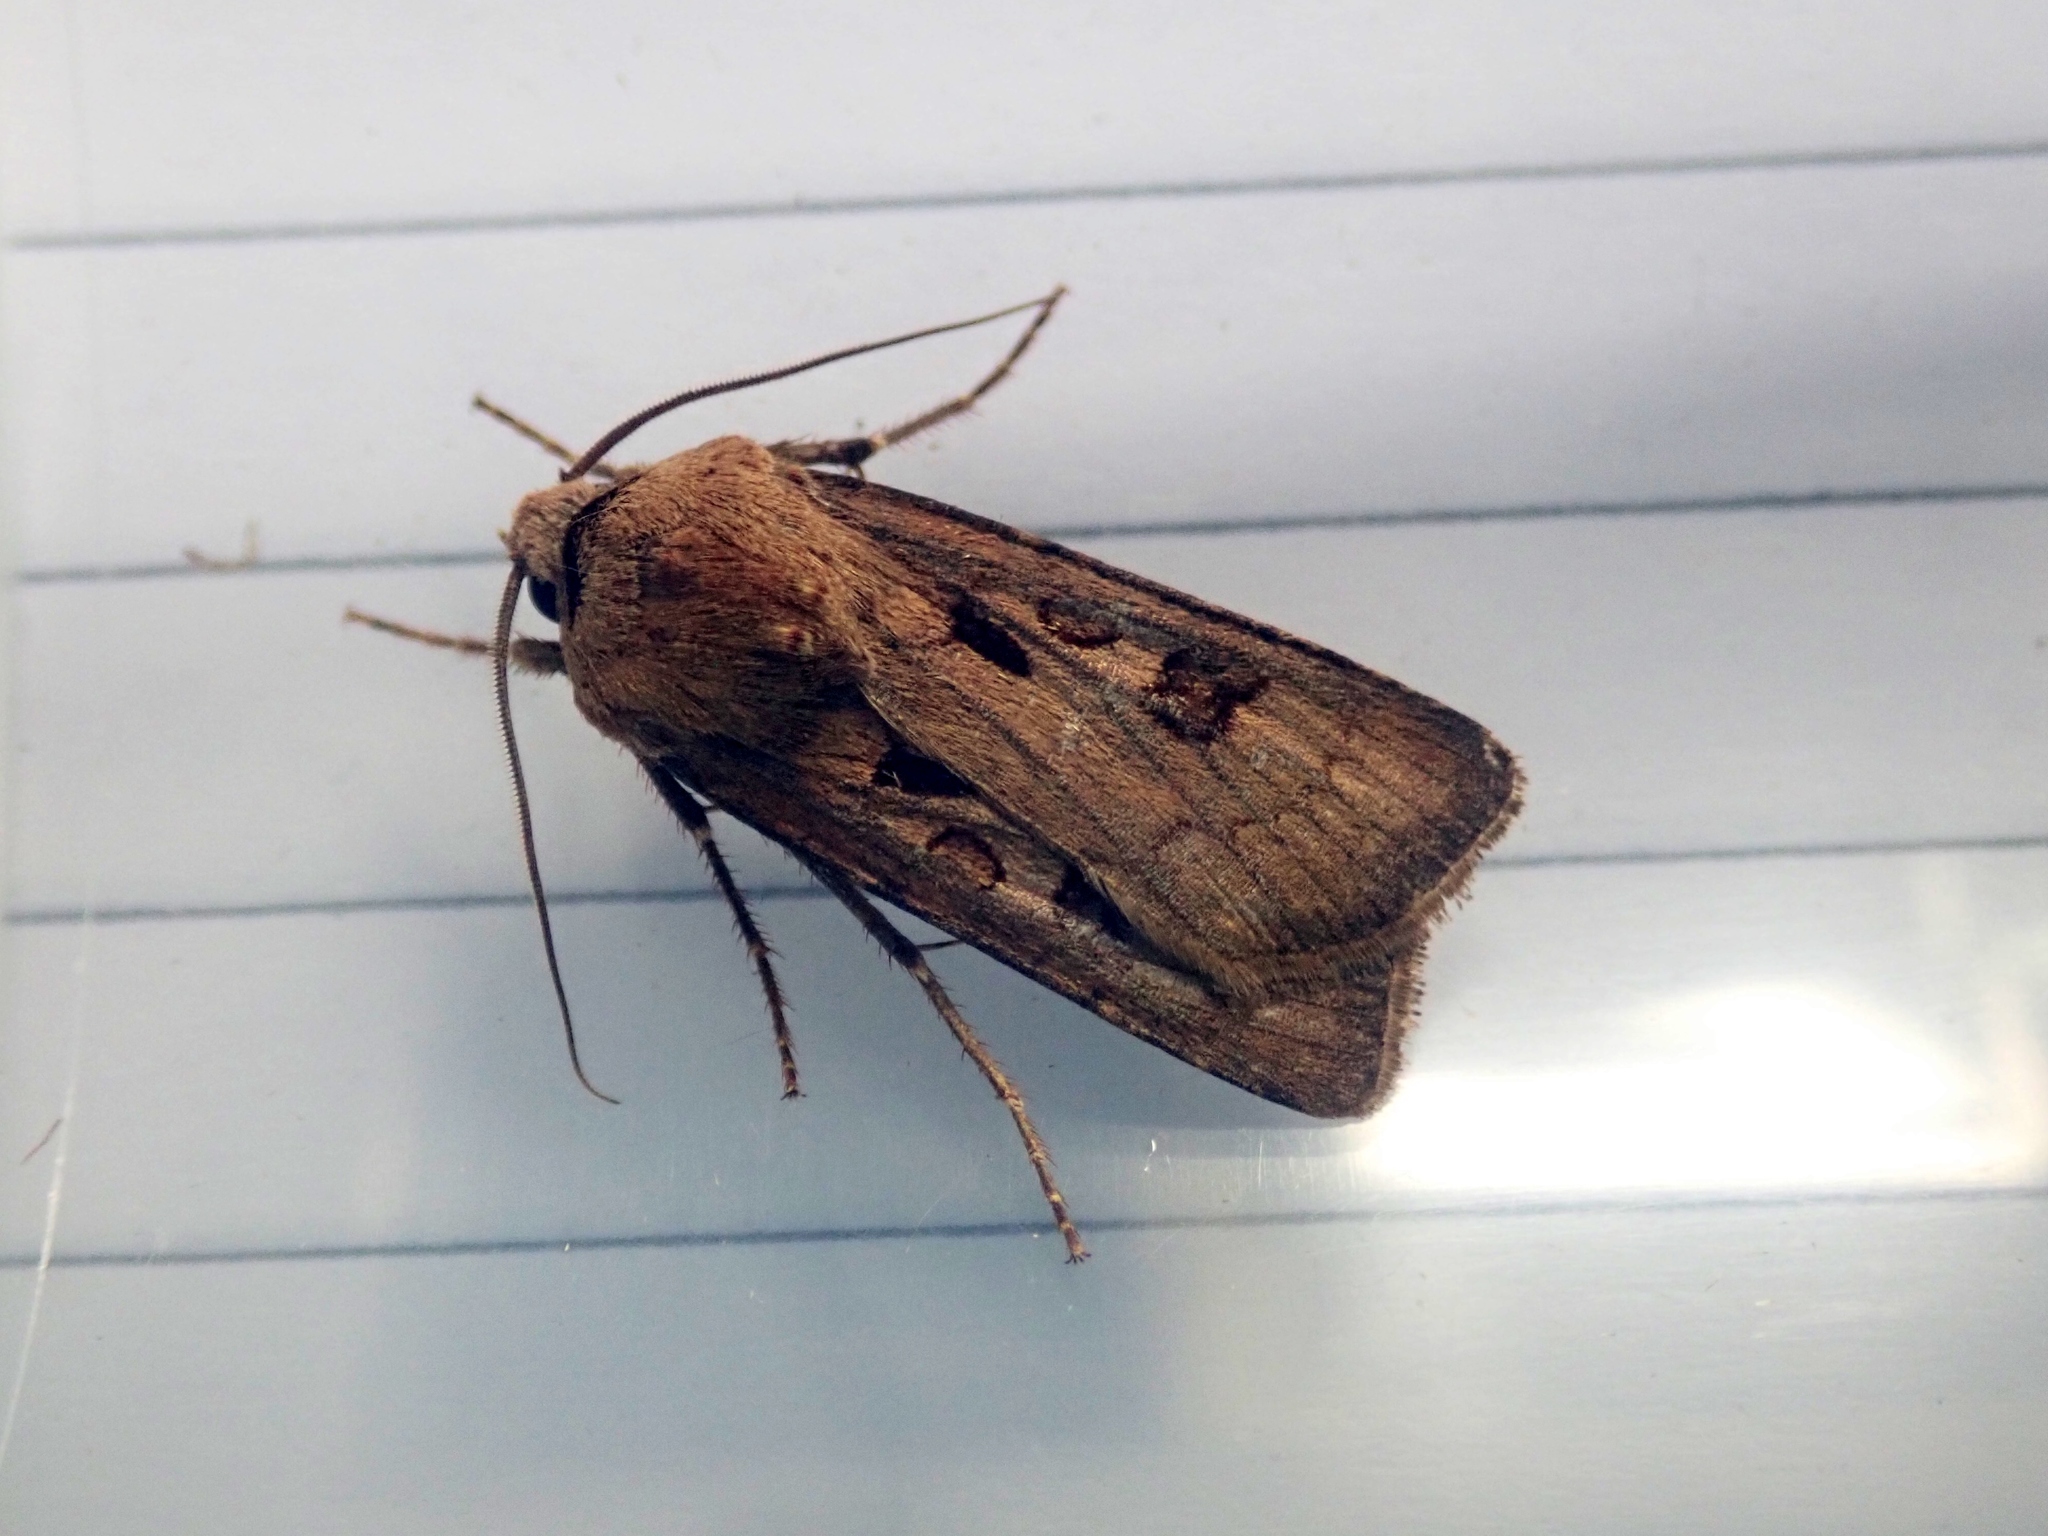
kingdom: Animalia
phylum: Arthropoda
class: Insecta
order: Lepidoptera
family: Noctuidae
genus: Agrotis
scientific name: Agrotis exclamationis
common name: Heart and dart
